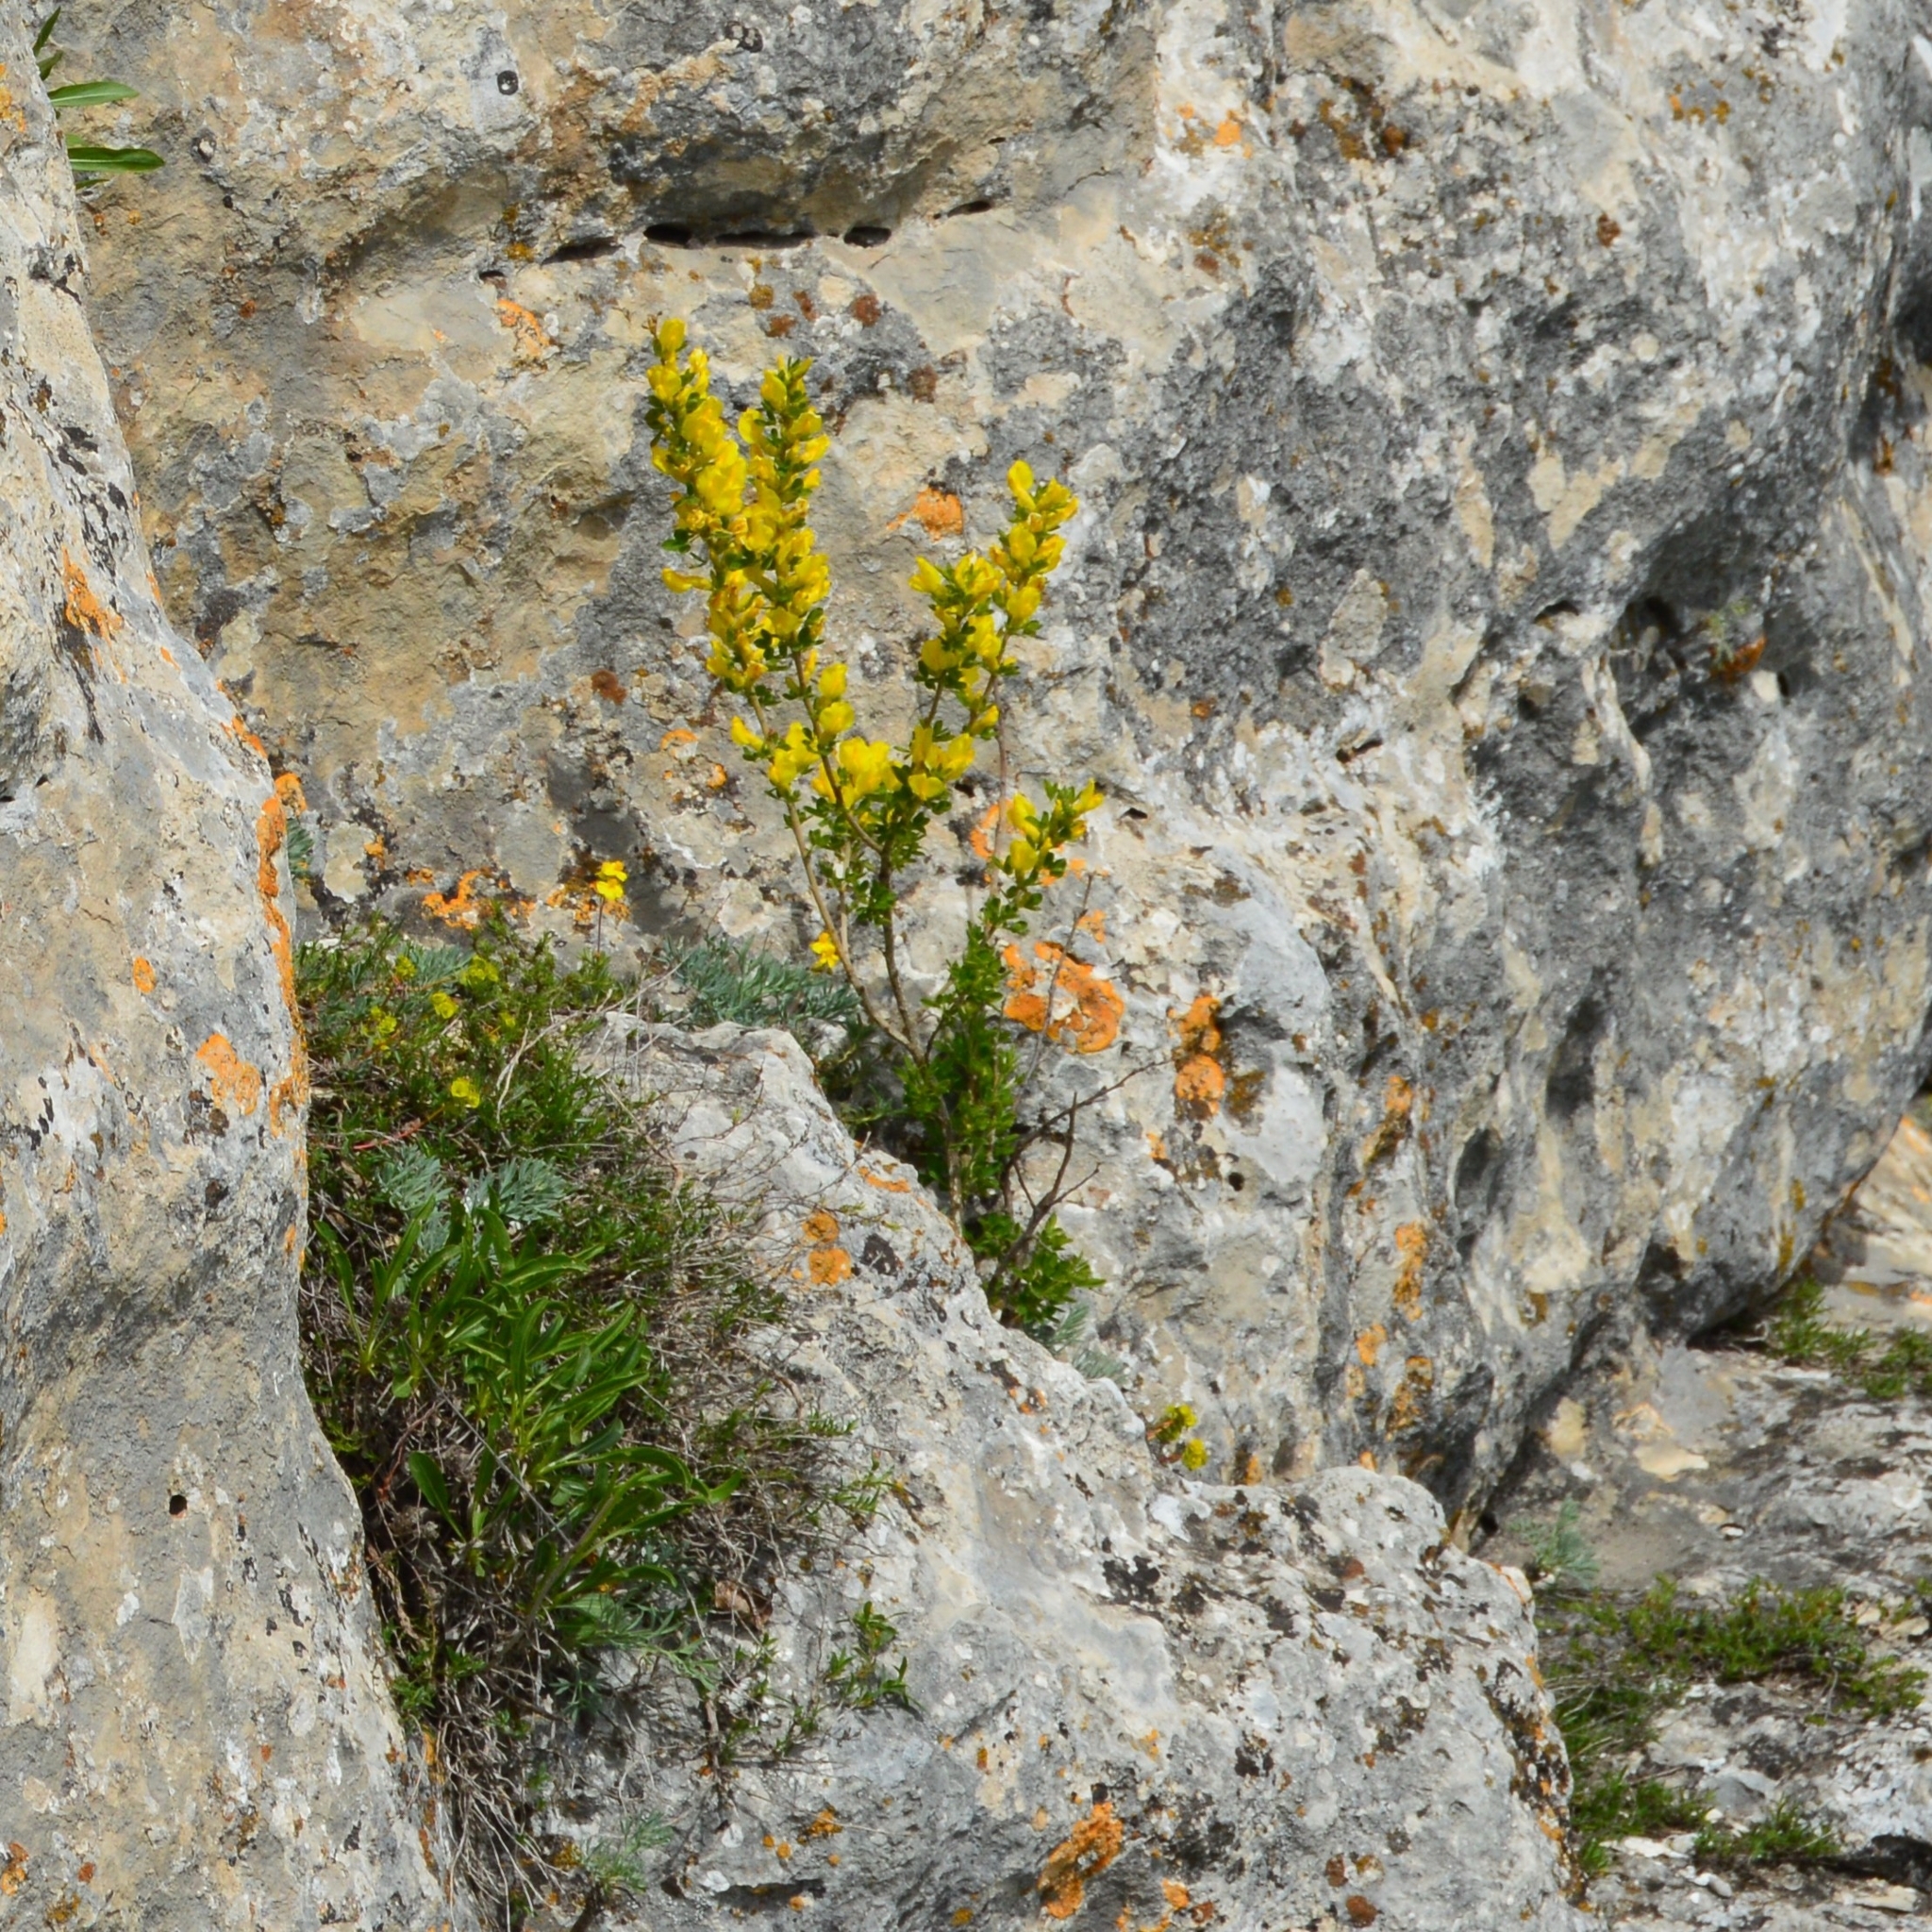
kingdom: Plantae
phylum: Tracheophyta
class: Magnoliopsida
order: Fabales
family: Fabaceae
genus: Genista
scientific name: Genista albida
